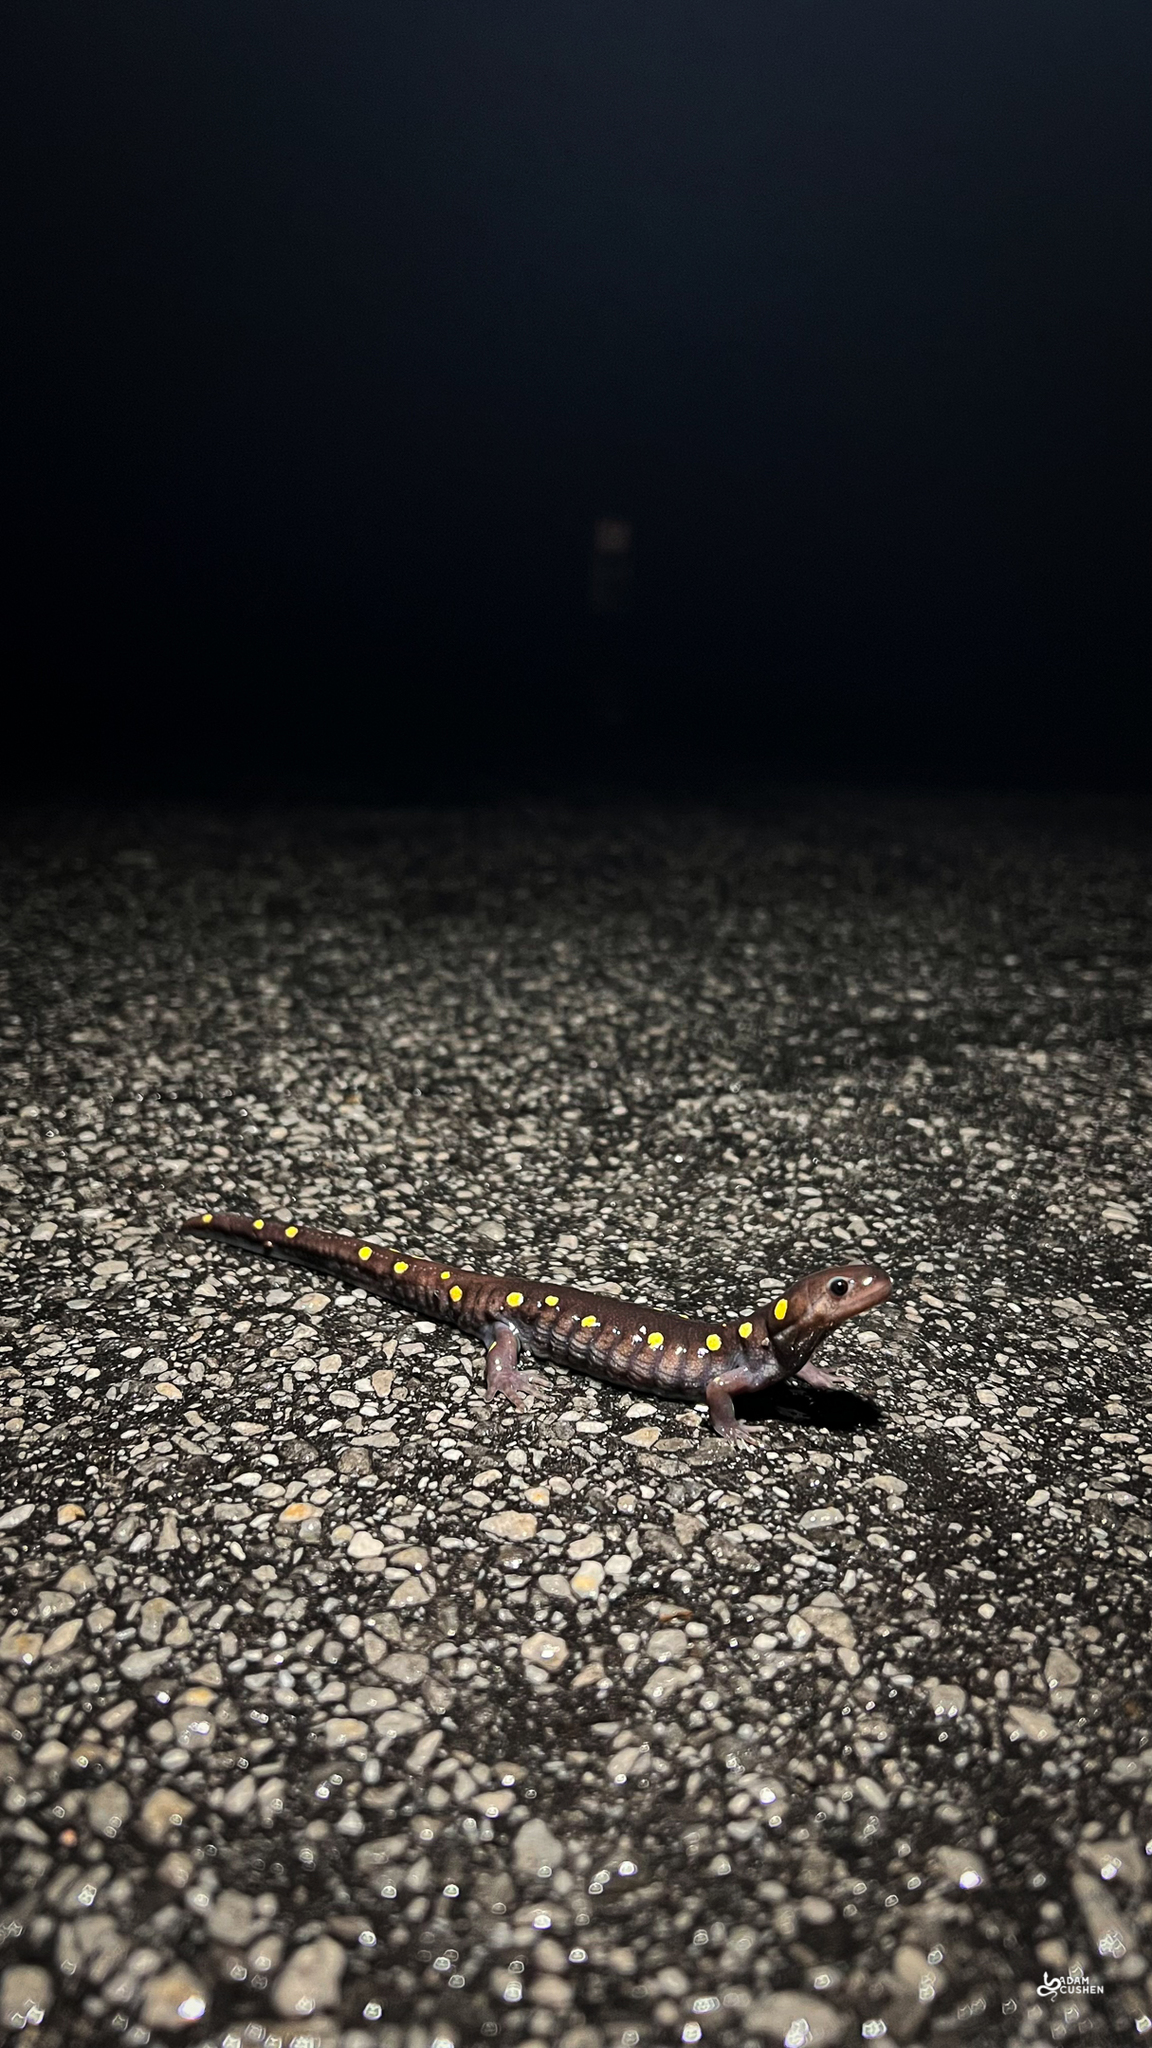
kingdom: Animalia
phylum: Chordata
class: Amphibia
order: Caudata
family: Ambystomatidae
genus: Ambystoma
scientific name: Ambystoma maculatum
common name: Spotted salamander
